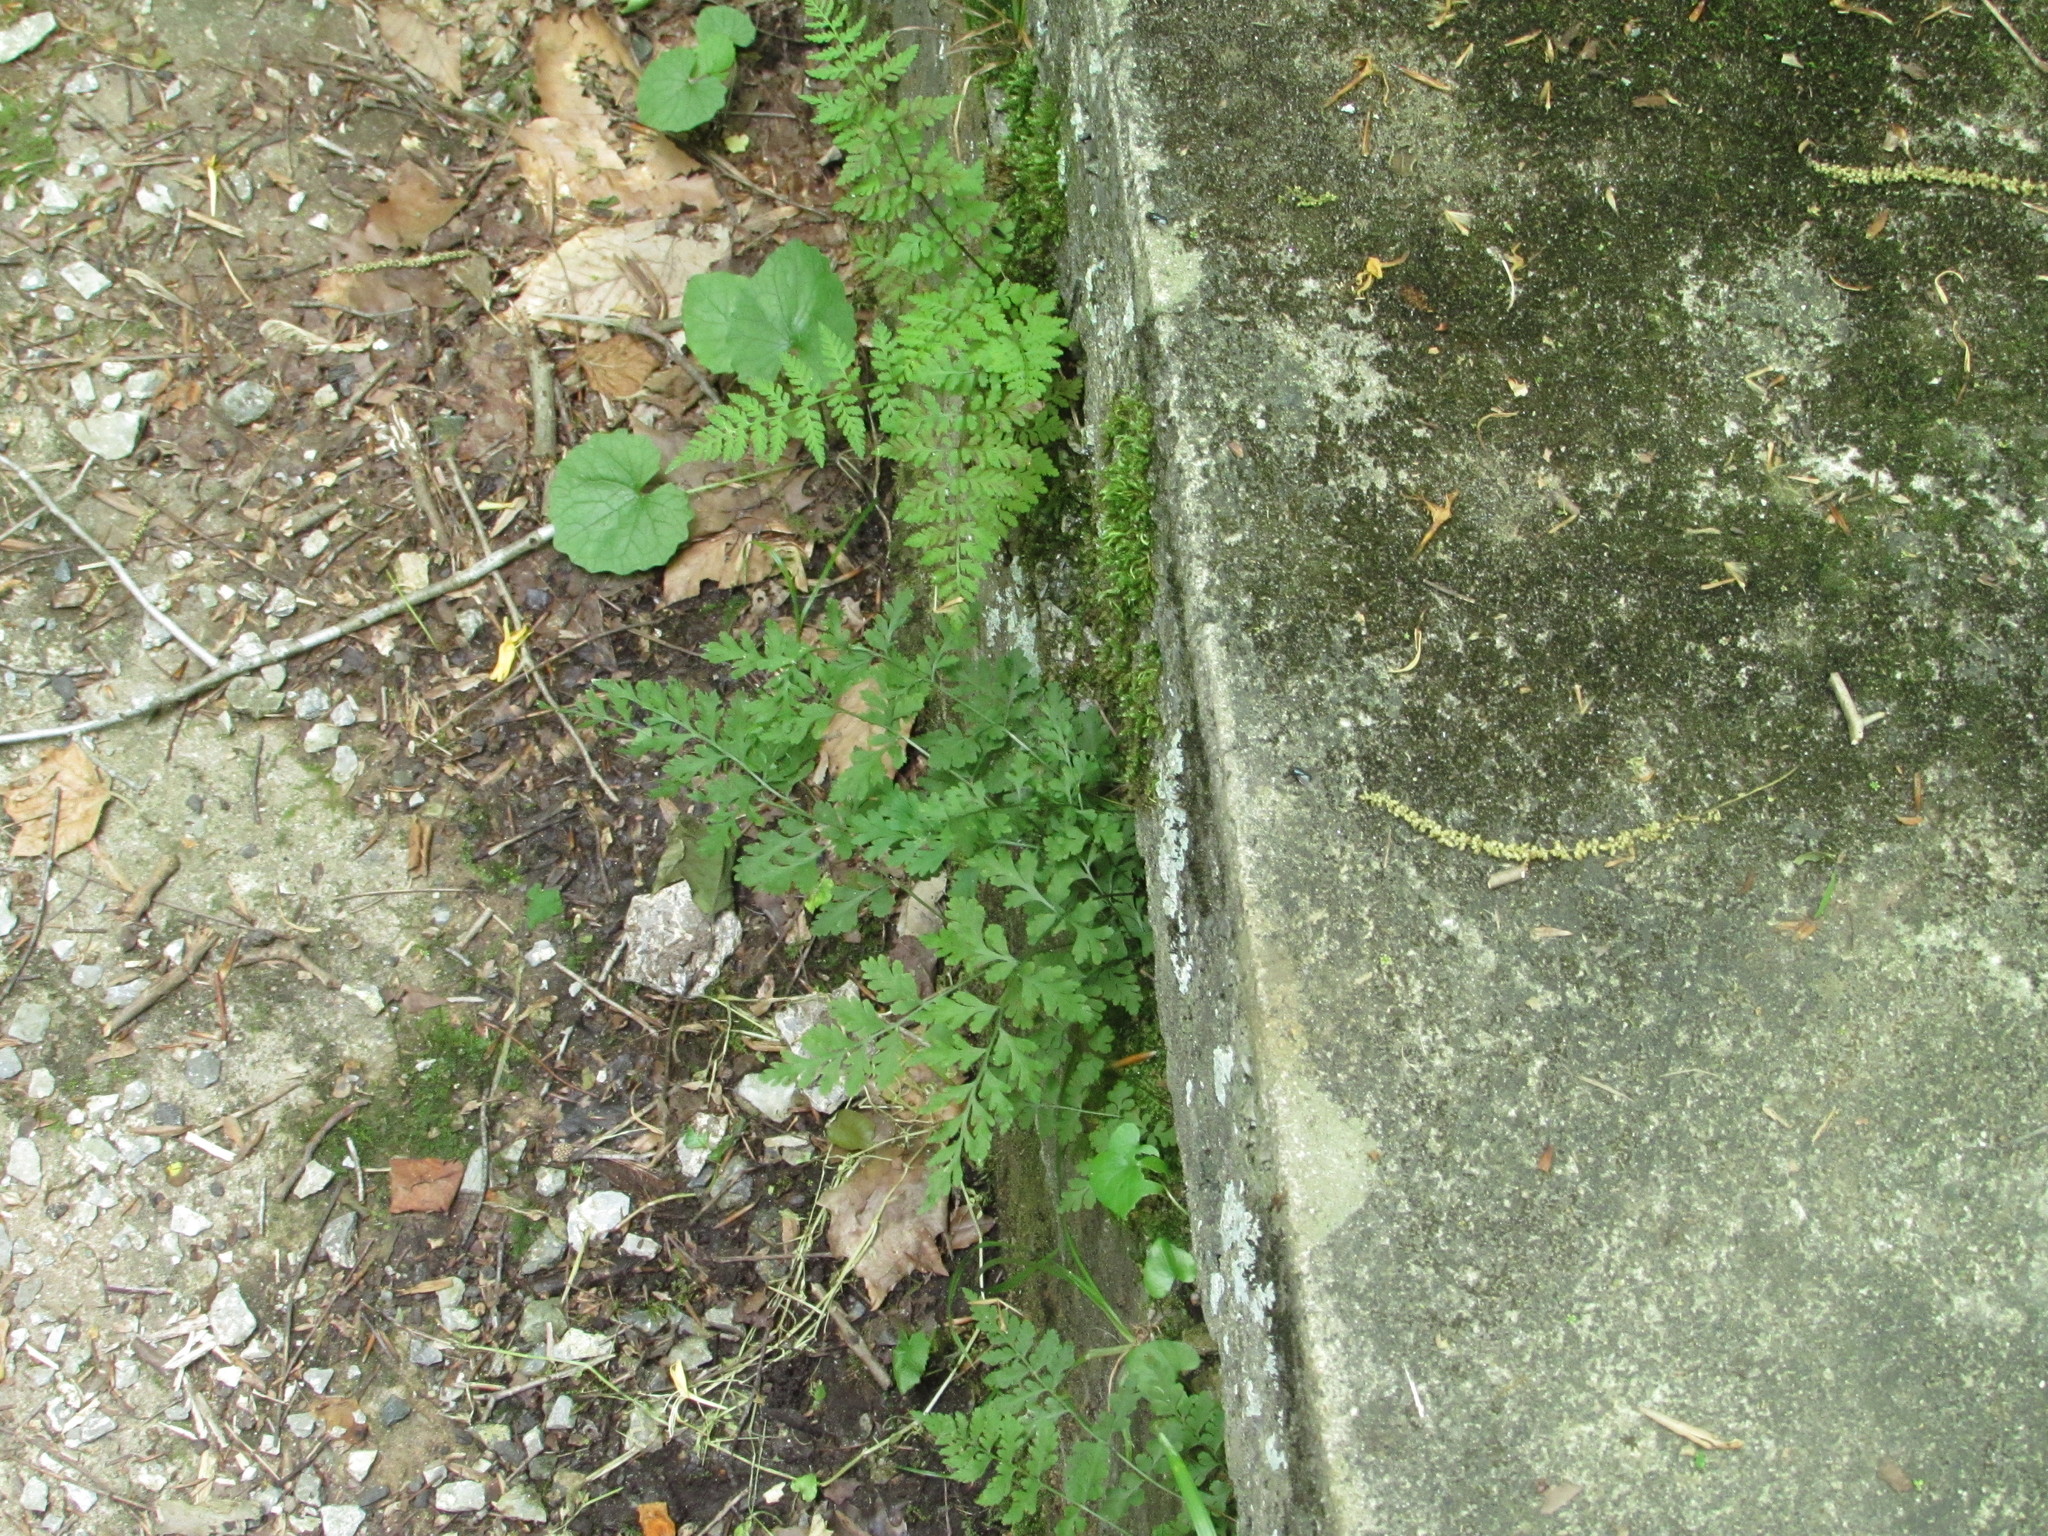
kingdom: Plantae
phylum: Tracheophyta
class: Polypodiopsida
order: Polypodiales
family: Cystopteridaceae
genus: Cystopteris
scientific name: Cystopteris tenuis
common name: Mackay's brittle fern
